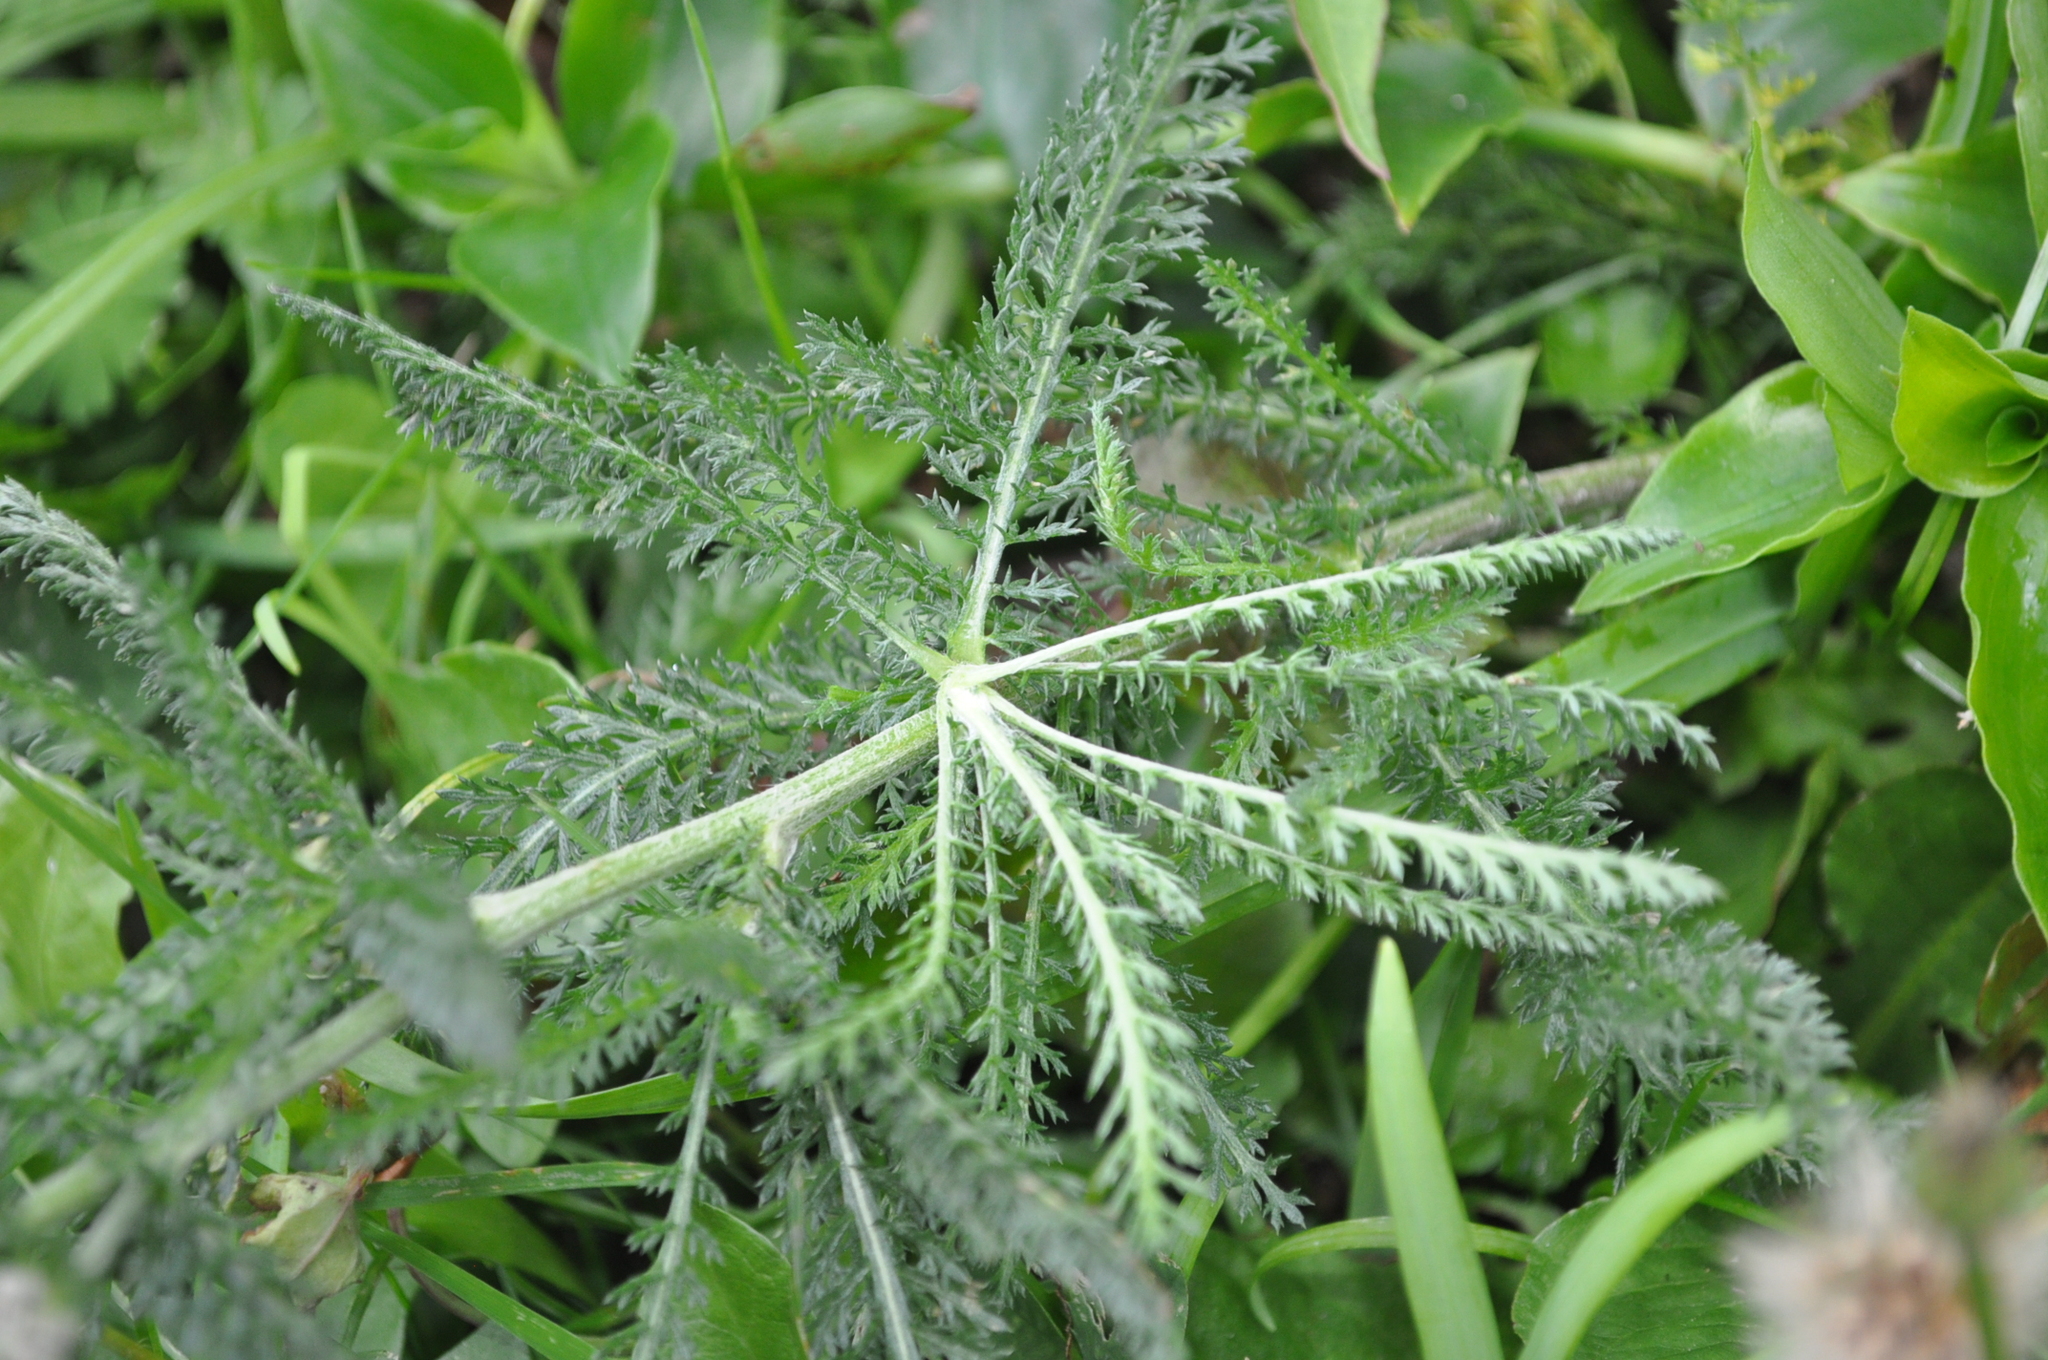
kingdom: Plantae
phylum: Tracheophyta
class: Magnoliopsida
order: Asterales
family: Asteraceae
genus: Achillea
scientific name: Achillea millefolium
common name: Yarrow
